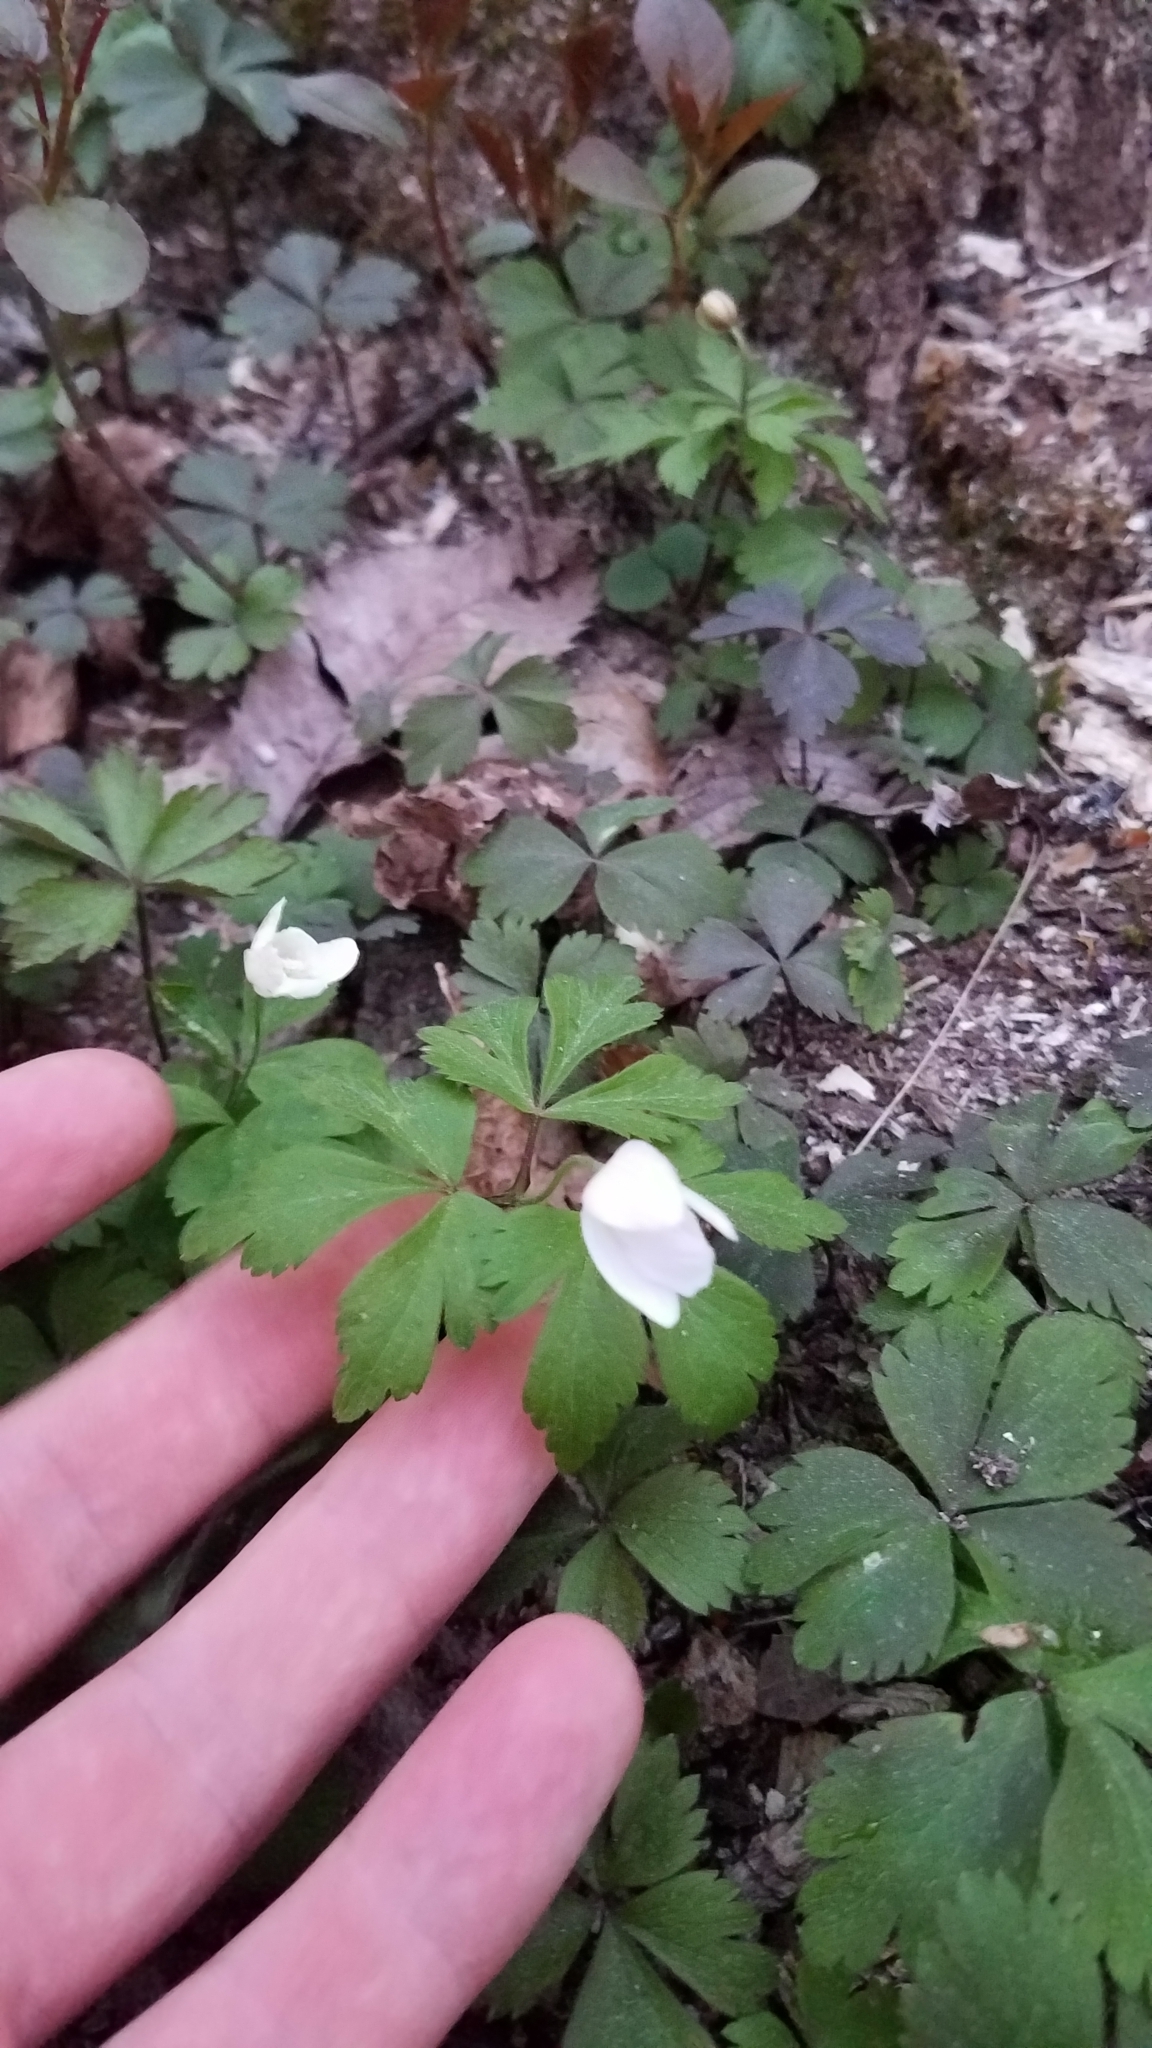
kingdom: Plantae
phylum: Tracheophyta
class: Magnoliopsida
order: Ranunculales
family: Ranunculaceae
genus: Anemone
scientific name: Anemone quinquefolia
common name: Wood anemone
